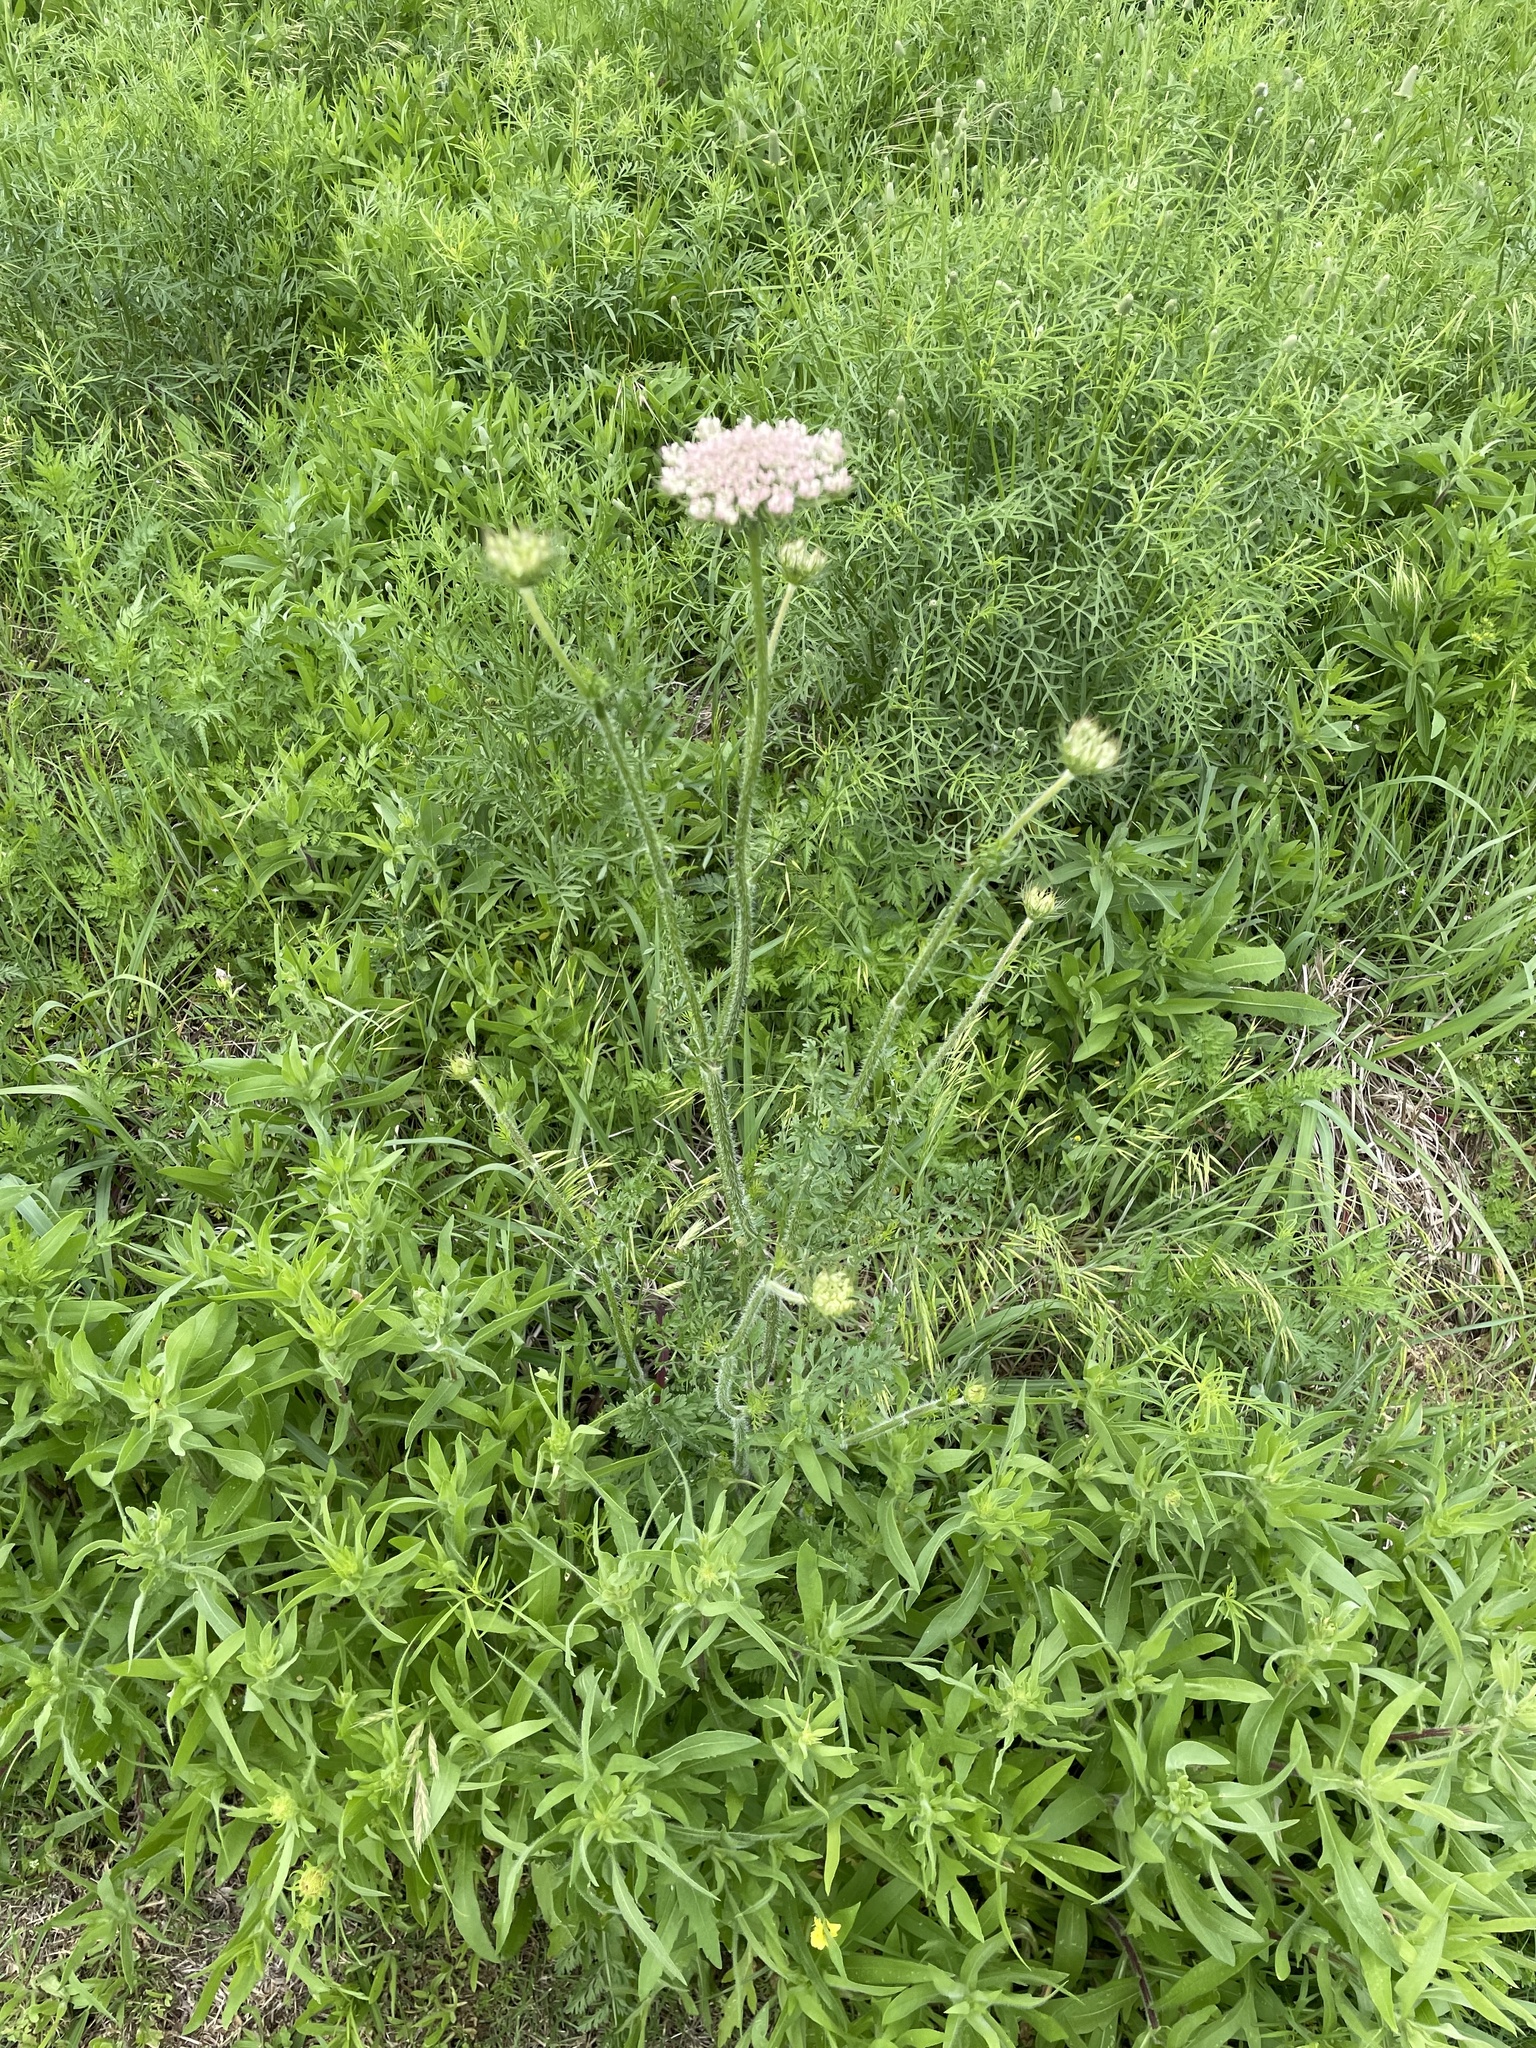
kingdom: Plantae
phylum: Tracheophyta
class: Magnoliopsida
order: Apiales
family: Apiaceae
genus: Daucus
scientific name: Daucus carota
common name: Wild carrot
